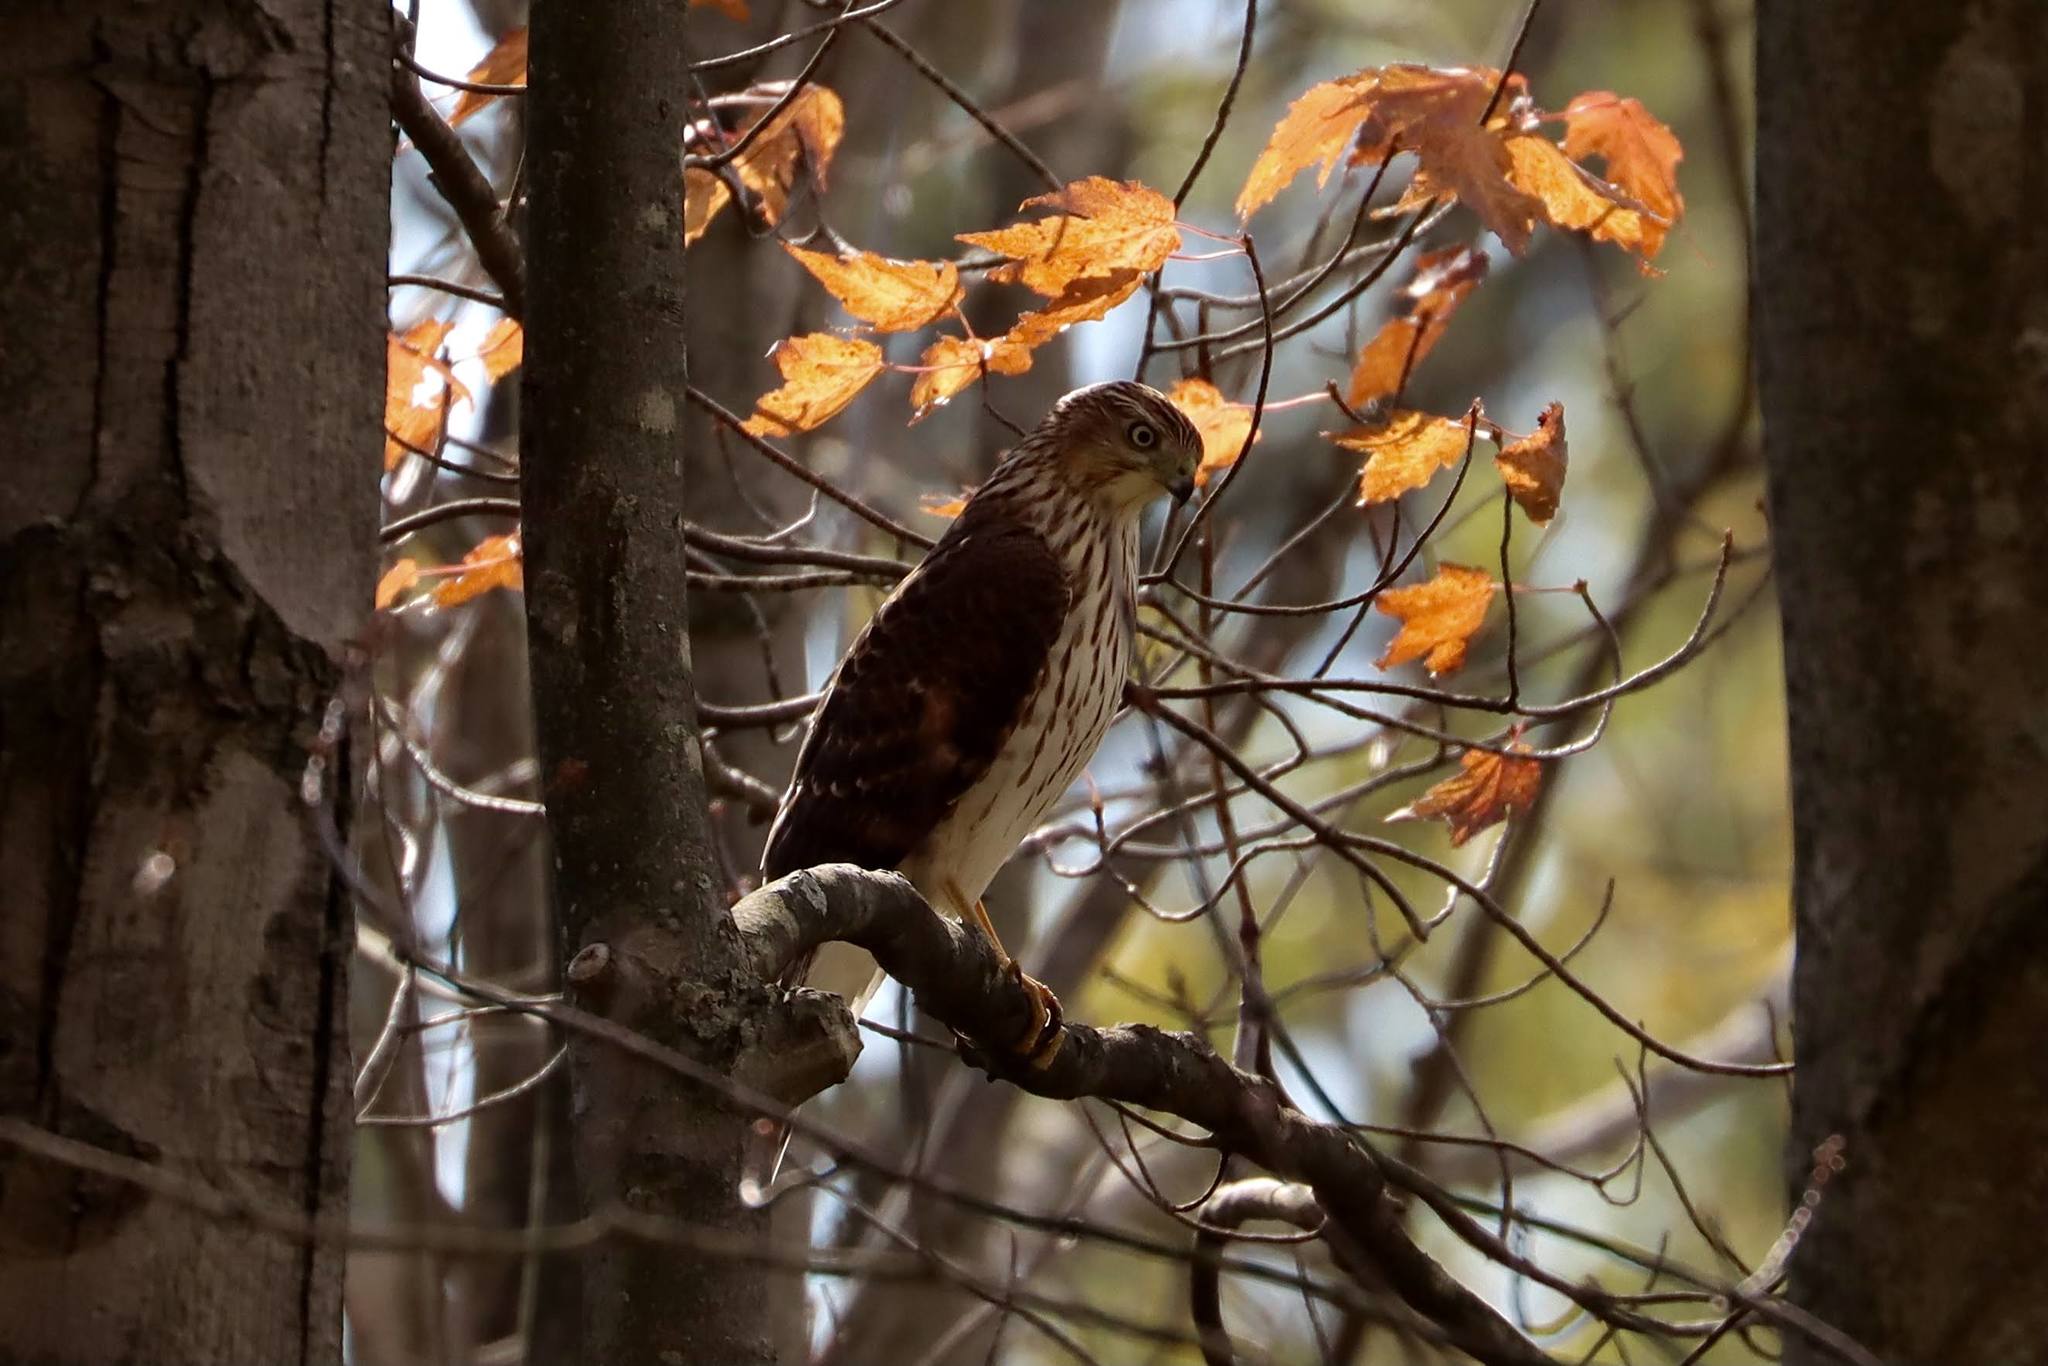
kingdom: Animalia
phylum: Chordata
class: Aves
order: Accipitriformes
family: Accipitridae
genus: Accipiter
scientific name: Accipiter cooperii
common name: Cooper's hawk
